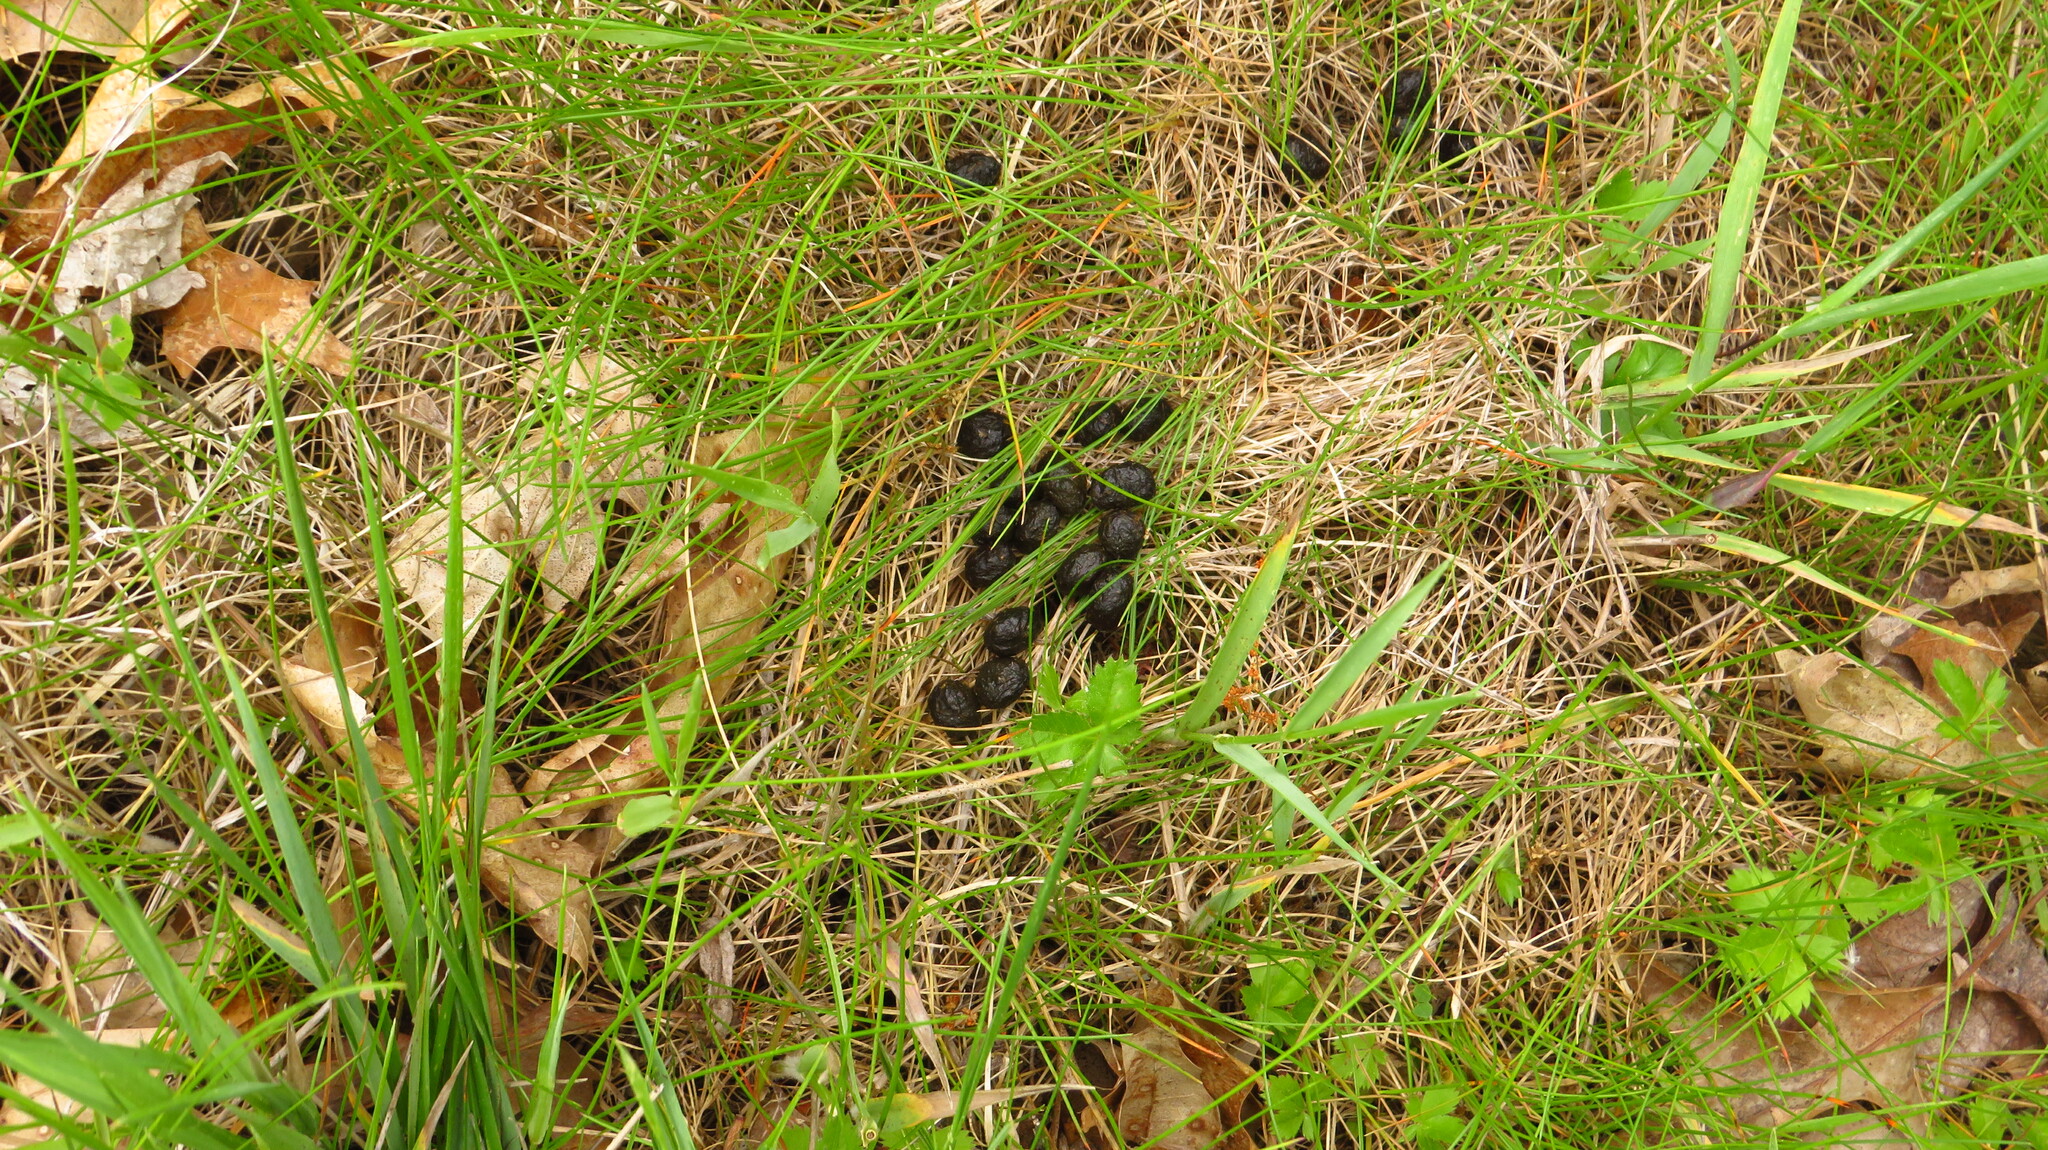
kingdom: Animalia
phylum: Chordata
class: Mammalia
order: Artiodactyla
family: Cervidae
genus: Odocoileus
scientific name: Odocoileus virginianus
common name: White-tailed deer
